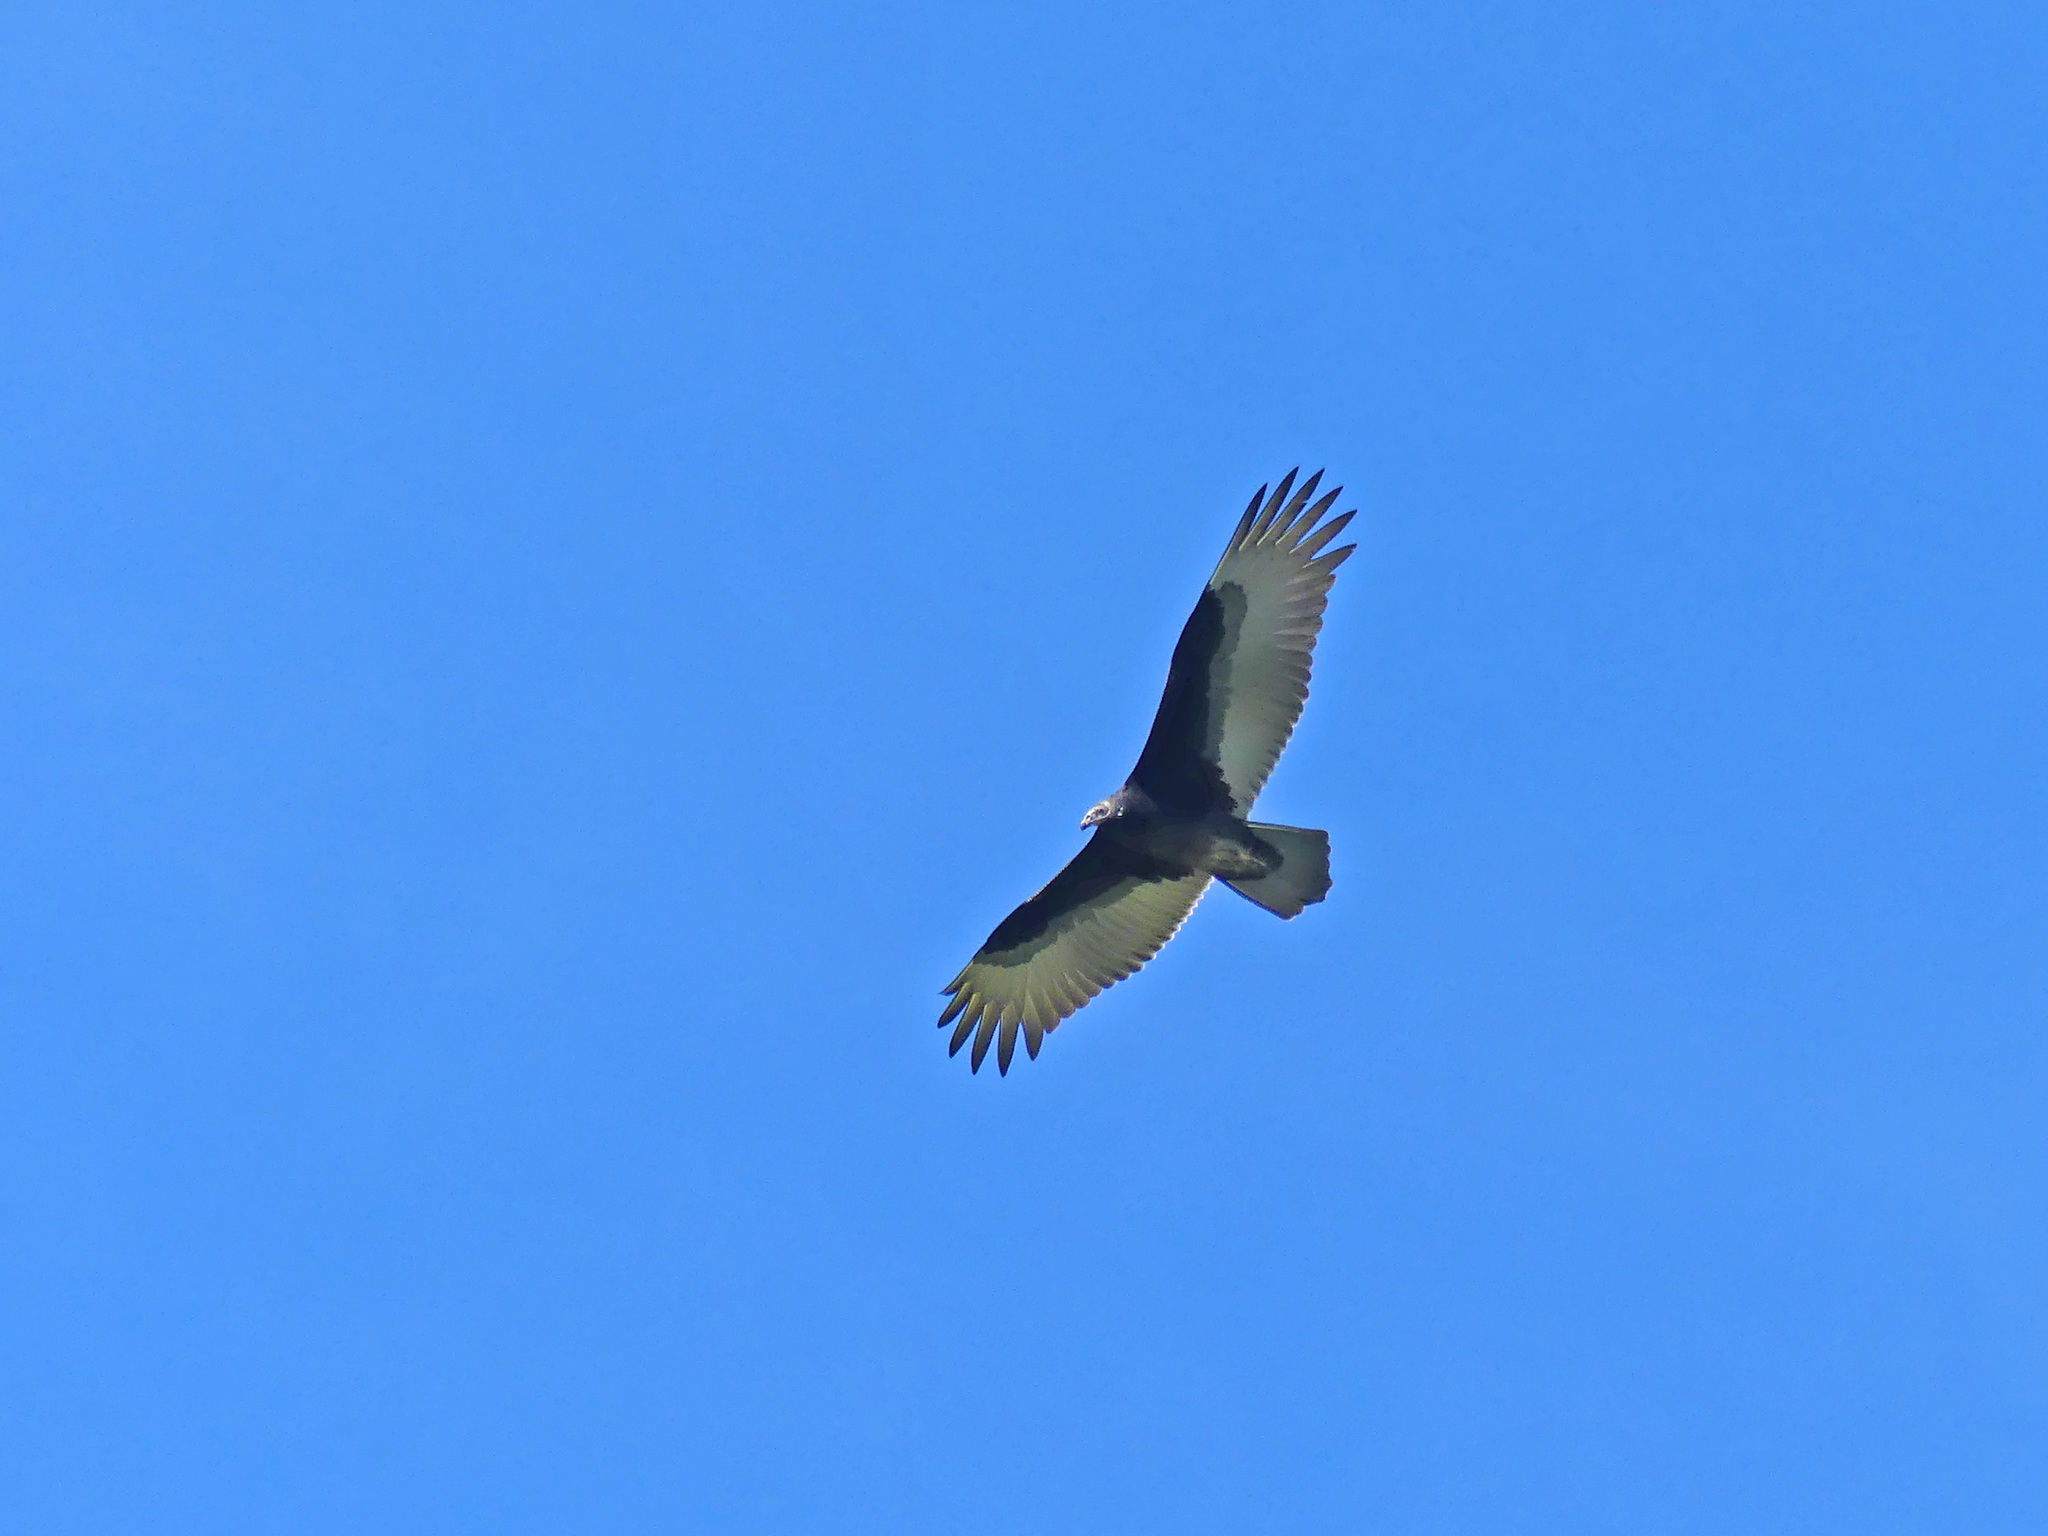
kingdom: Animalia
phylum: Chordata
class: Aves
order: Accipitriformes
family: Cathartidae
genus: Cathartes
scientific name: Cathartes aura
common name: Turkey vulture
